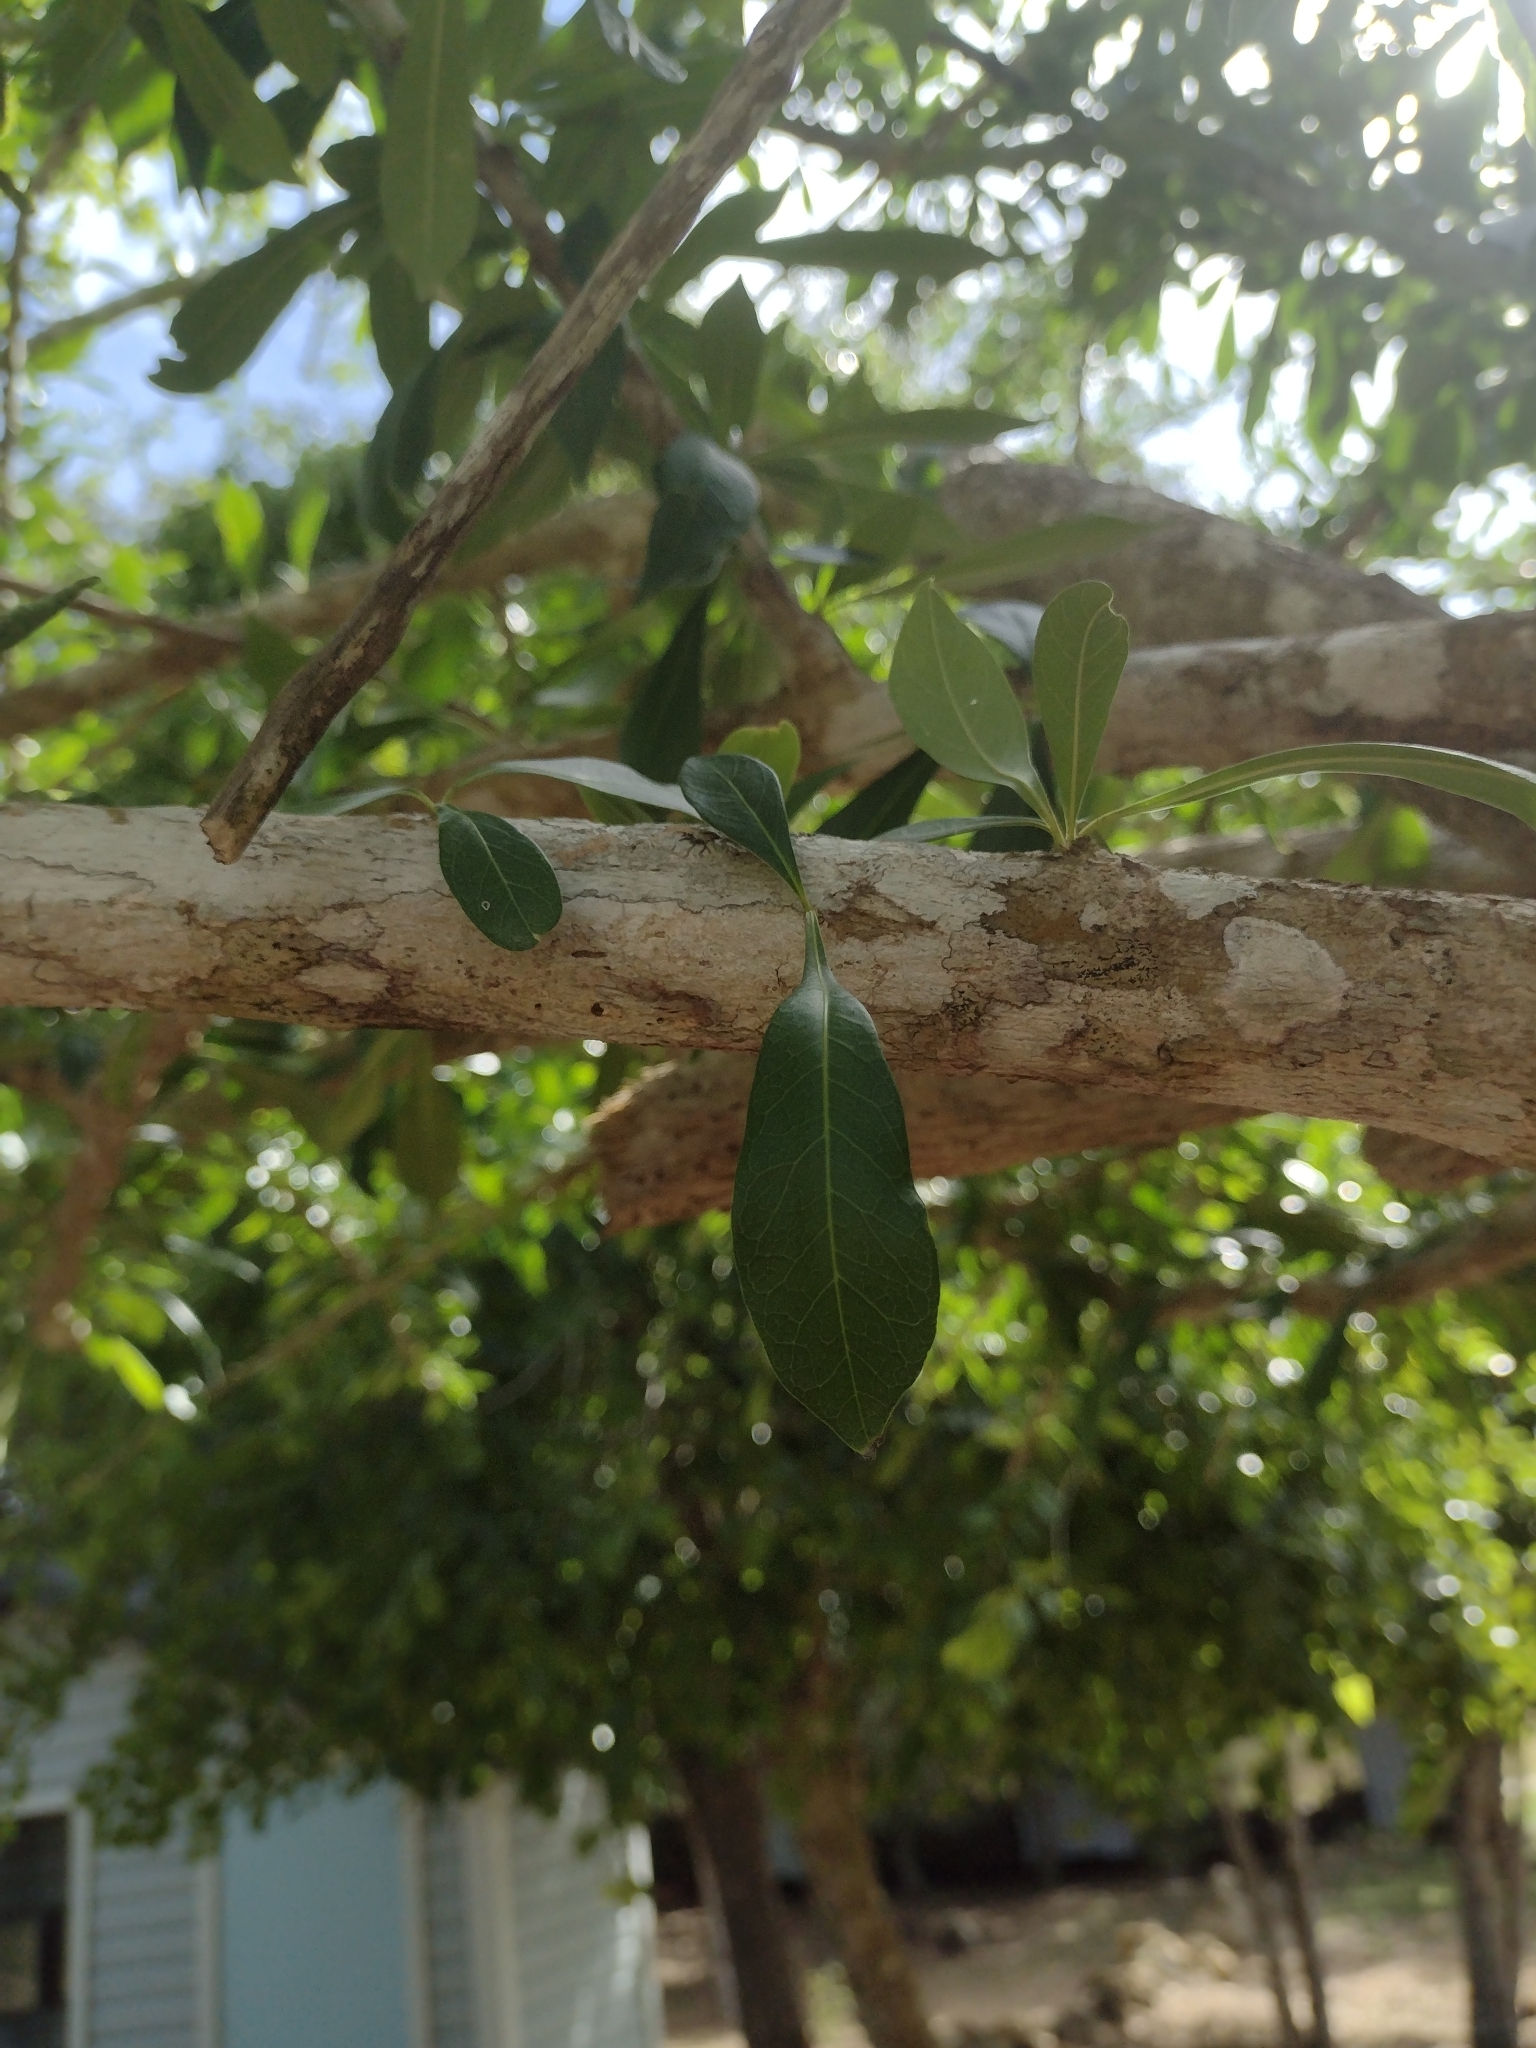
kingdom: Plantae
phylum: Tracheophyta
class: Magnoliopsida
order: Lamiales
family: Bignoniaceae
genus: Crescentia
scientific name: Crescentia cujete
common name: Calabash
